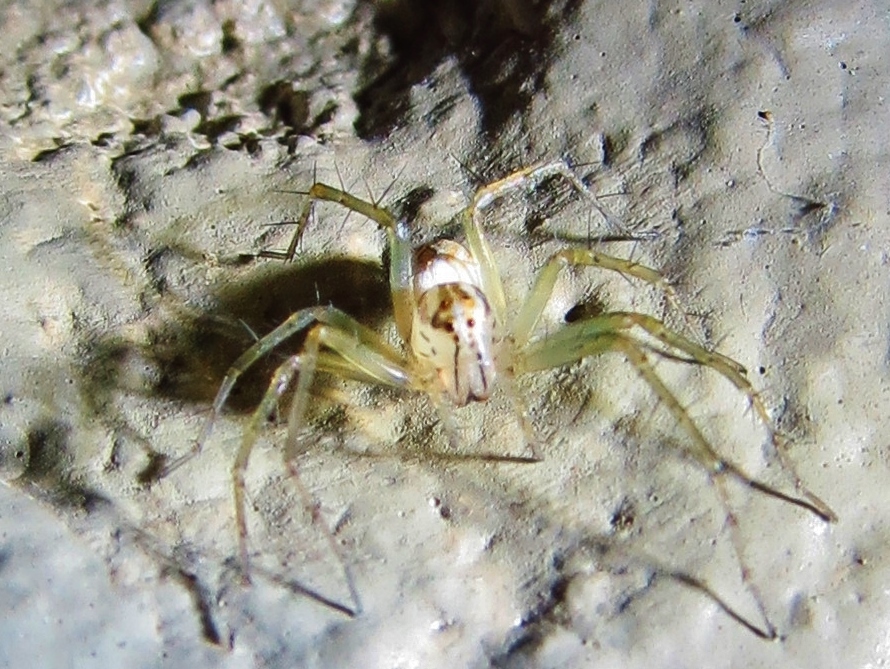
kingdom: Animalia
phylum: Arthropoda
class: Arachnida
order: Araneae
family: Oxyopidae
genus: Oxyopes
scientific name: Oxyopes salticus
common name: Lynx spiders
